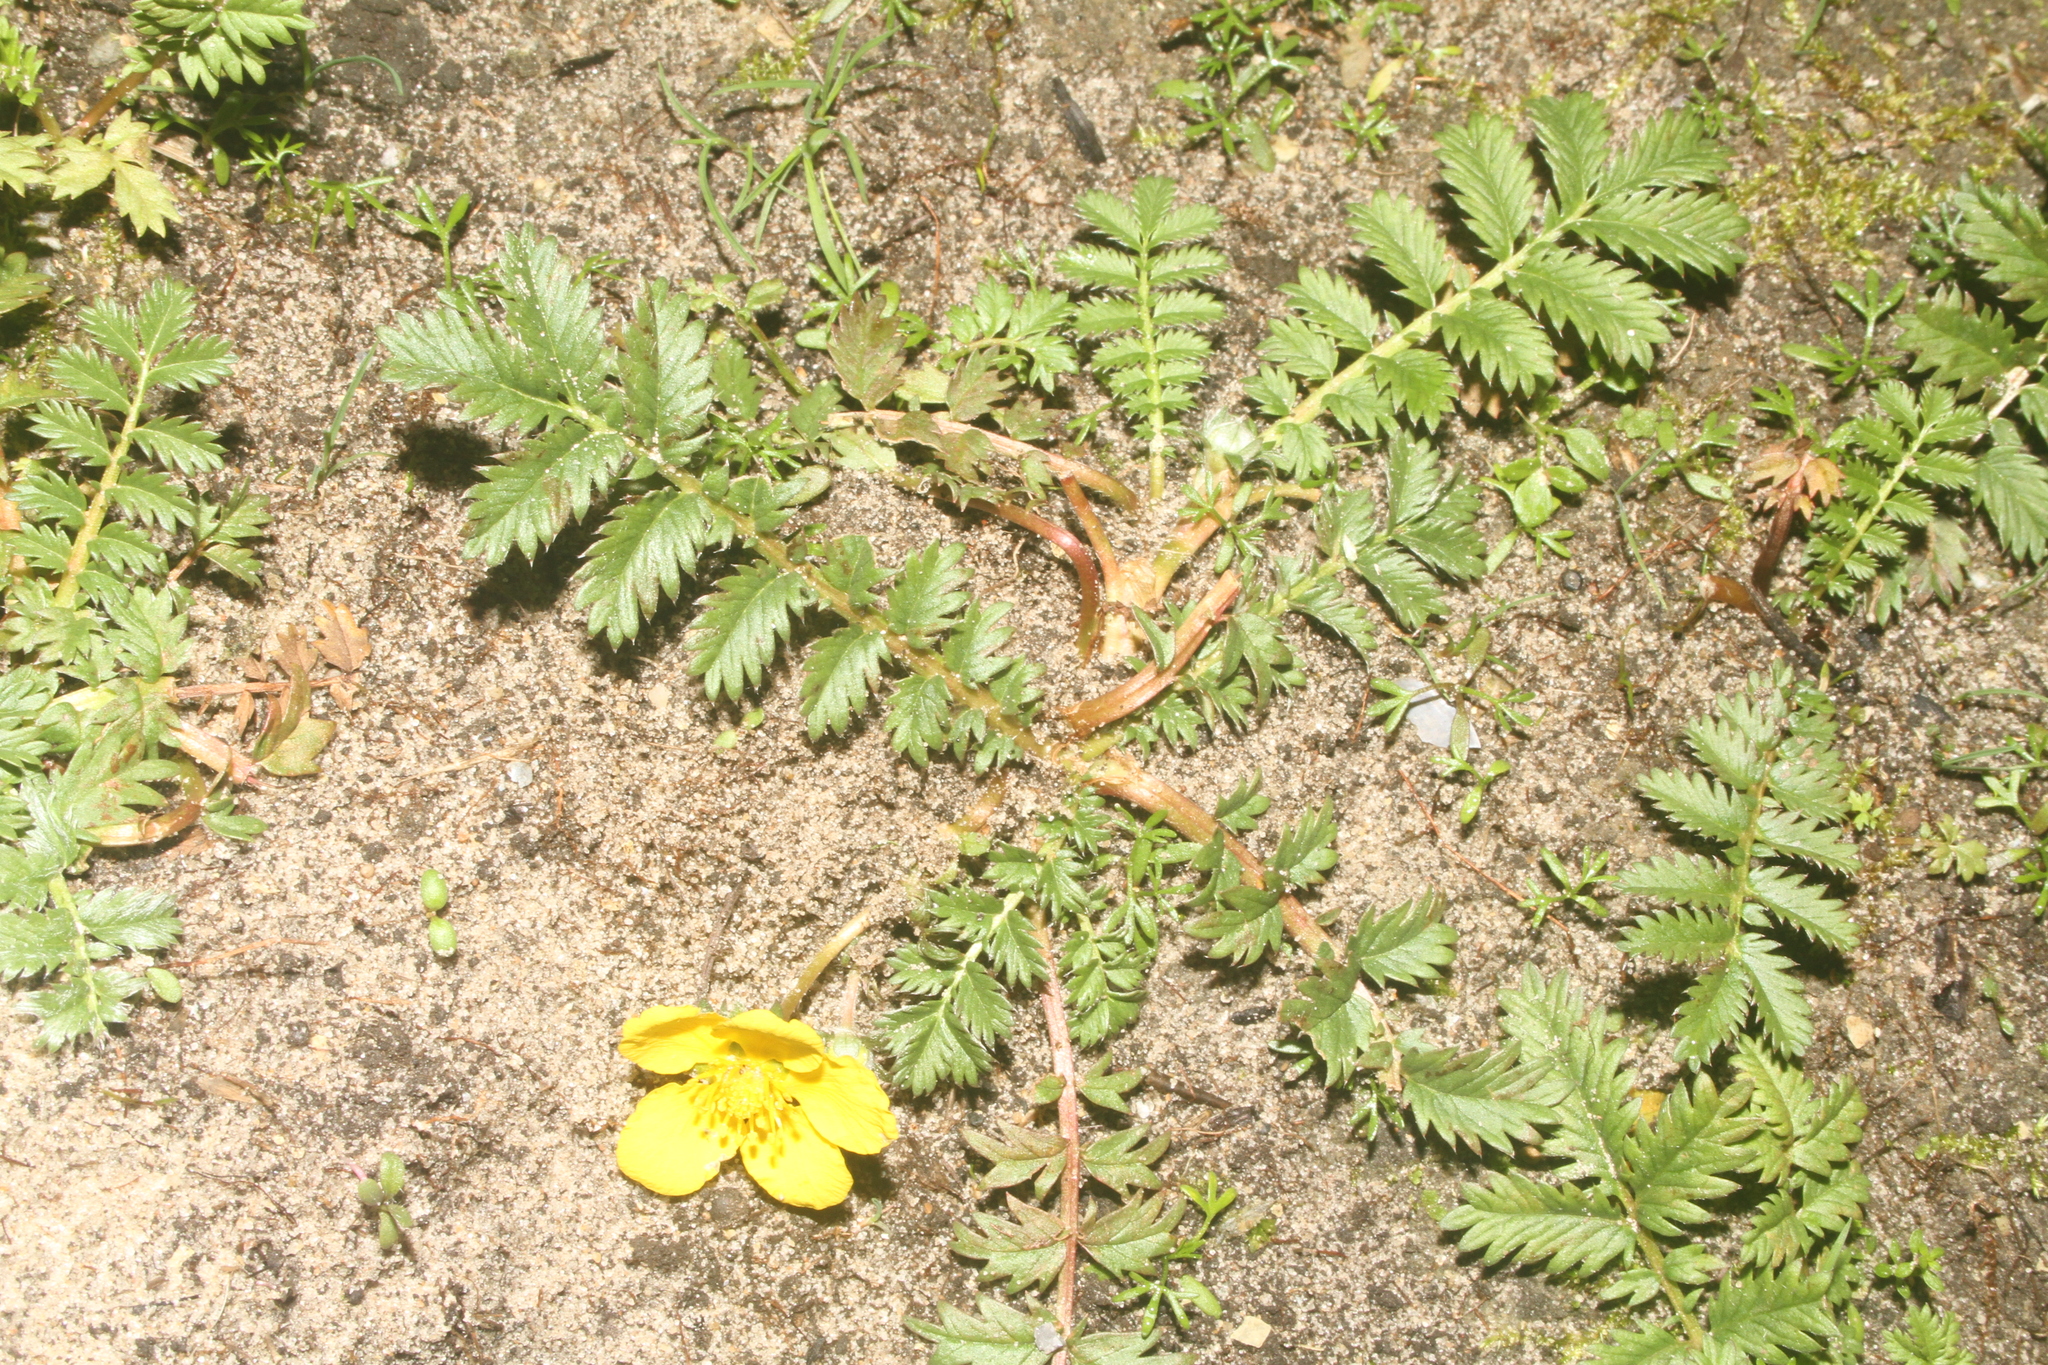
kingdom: Plantae
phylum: Tracheophyta
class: Magnoliopsida
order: Rosales
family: Rosaceae
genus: Argentina
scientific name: Argentina anserina
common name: Common silverweed
